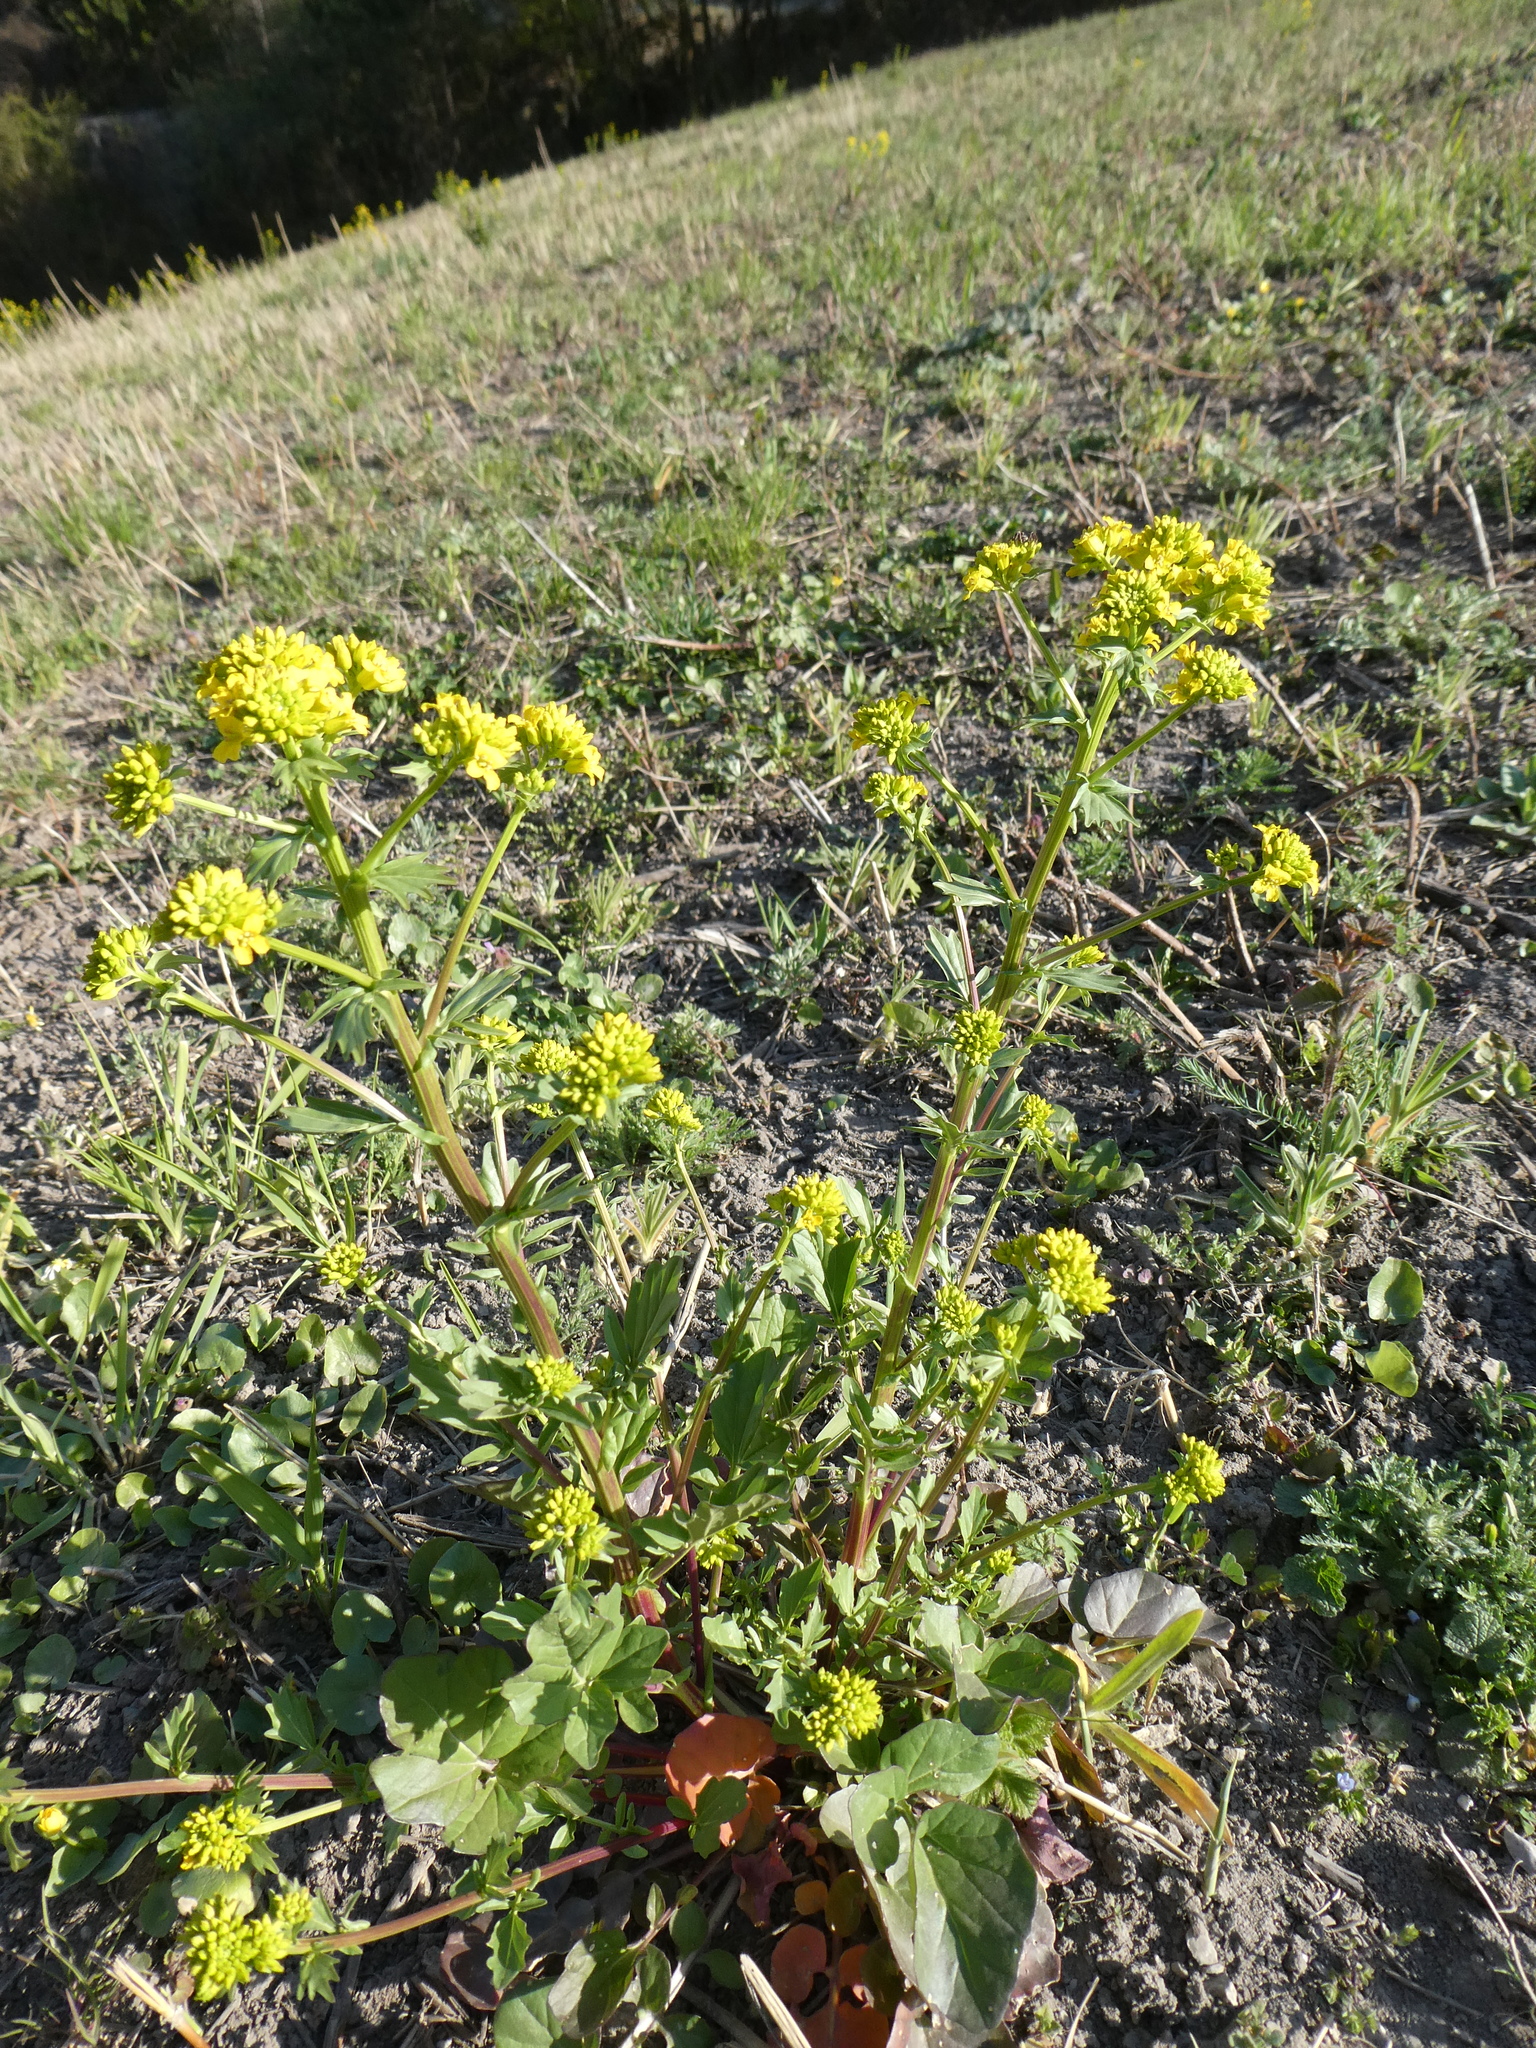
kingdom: Plantae
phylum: Tracheophyta
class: Magnoliopsida
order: Brassicales
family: Brassicaceae
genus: Barbarea
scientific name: Barbarea vulgaris
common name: Cressy-greens
